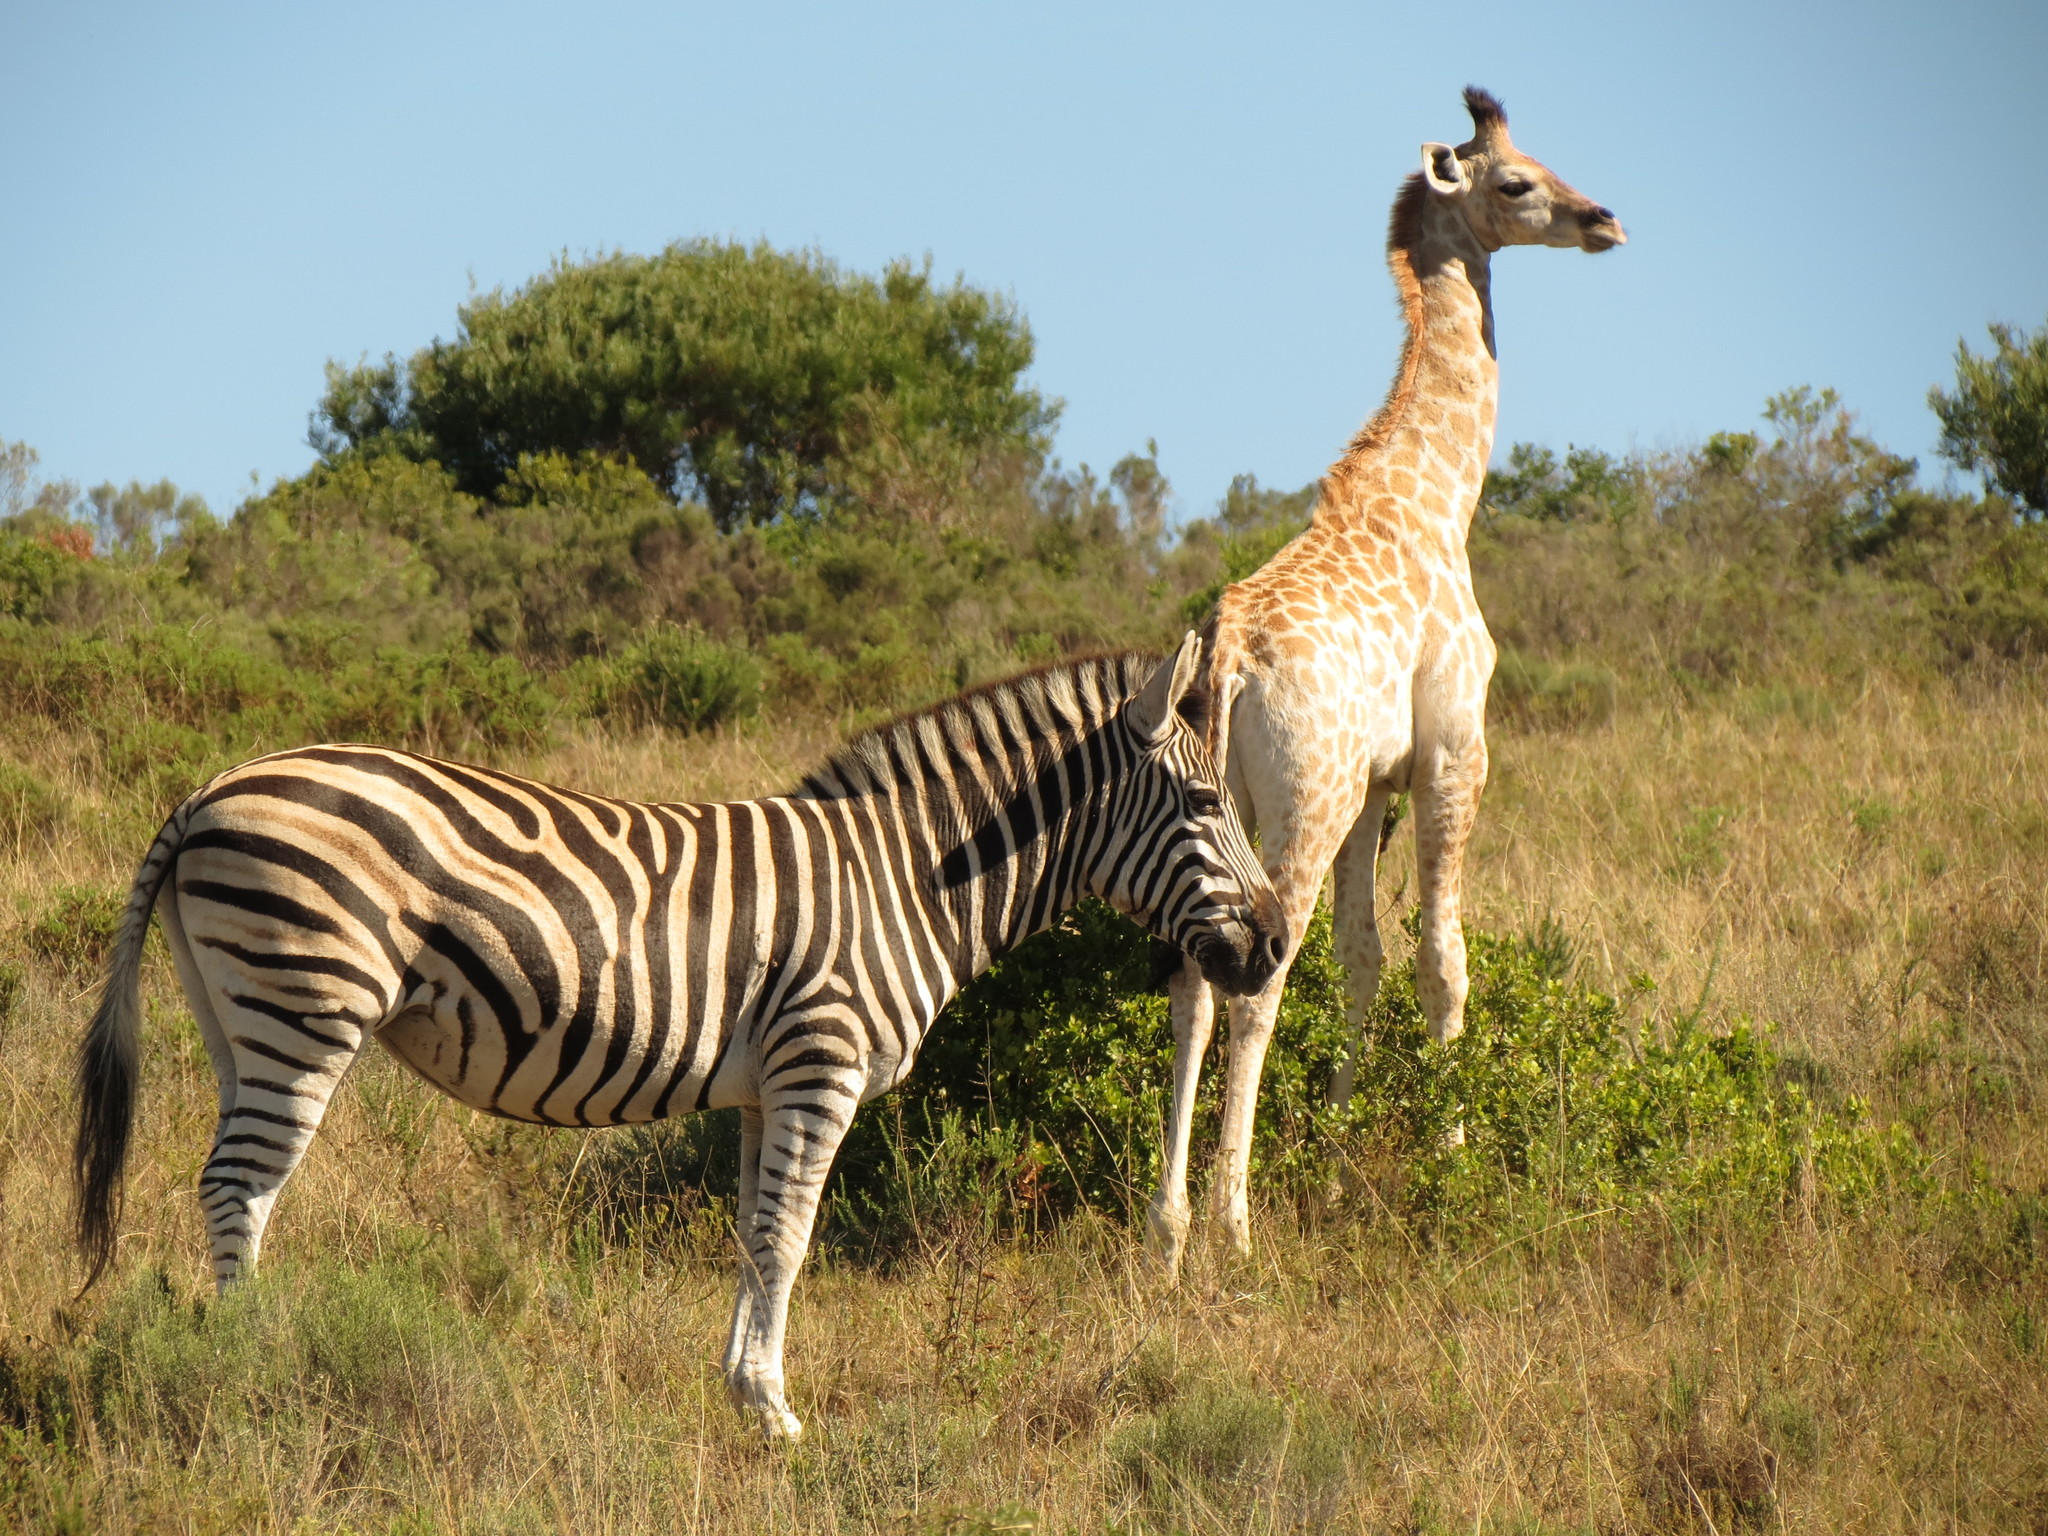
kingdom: Animalia
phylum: Chordata
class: Mammalia
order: Perissodactyla
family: Equidae
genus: Equus
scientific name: Equus quagga
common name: Plains zebra
